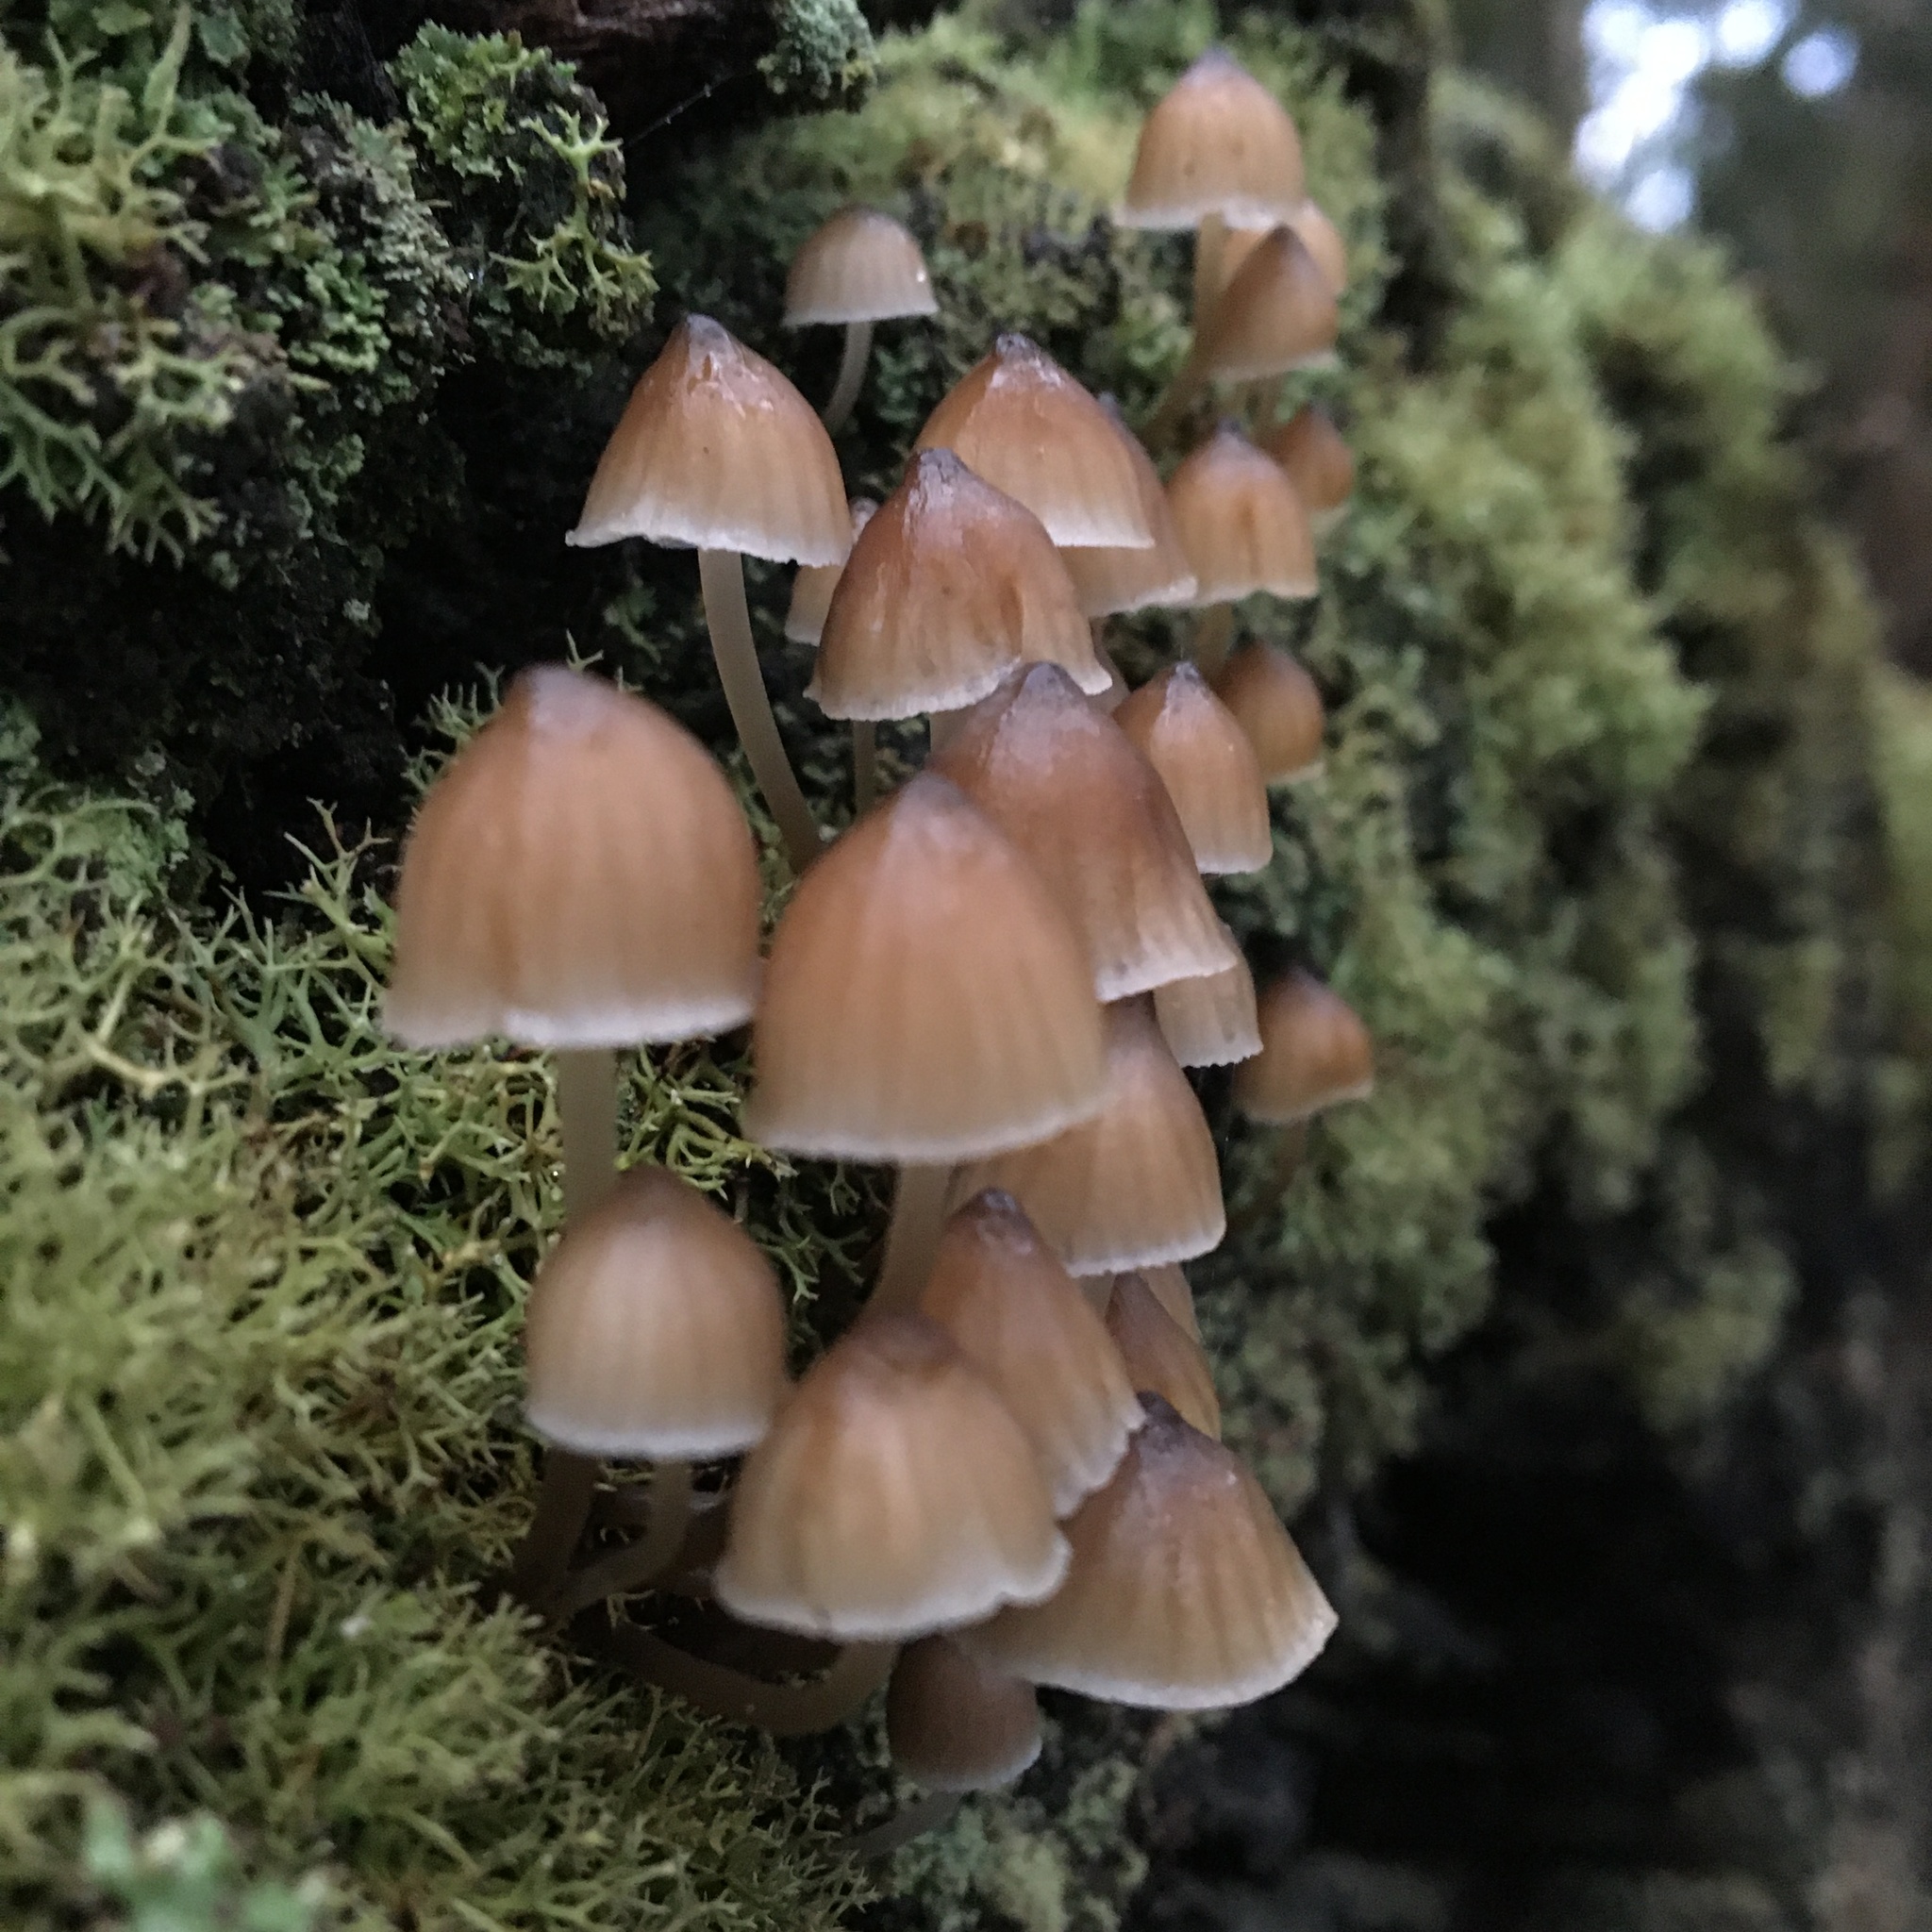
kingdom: Fungi
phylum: Basidiomycota
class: Agaricomycetes
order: Agaricales
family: Mycenaceae
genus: Mycena
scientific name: Mycena subgalericulata
